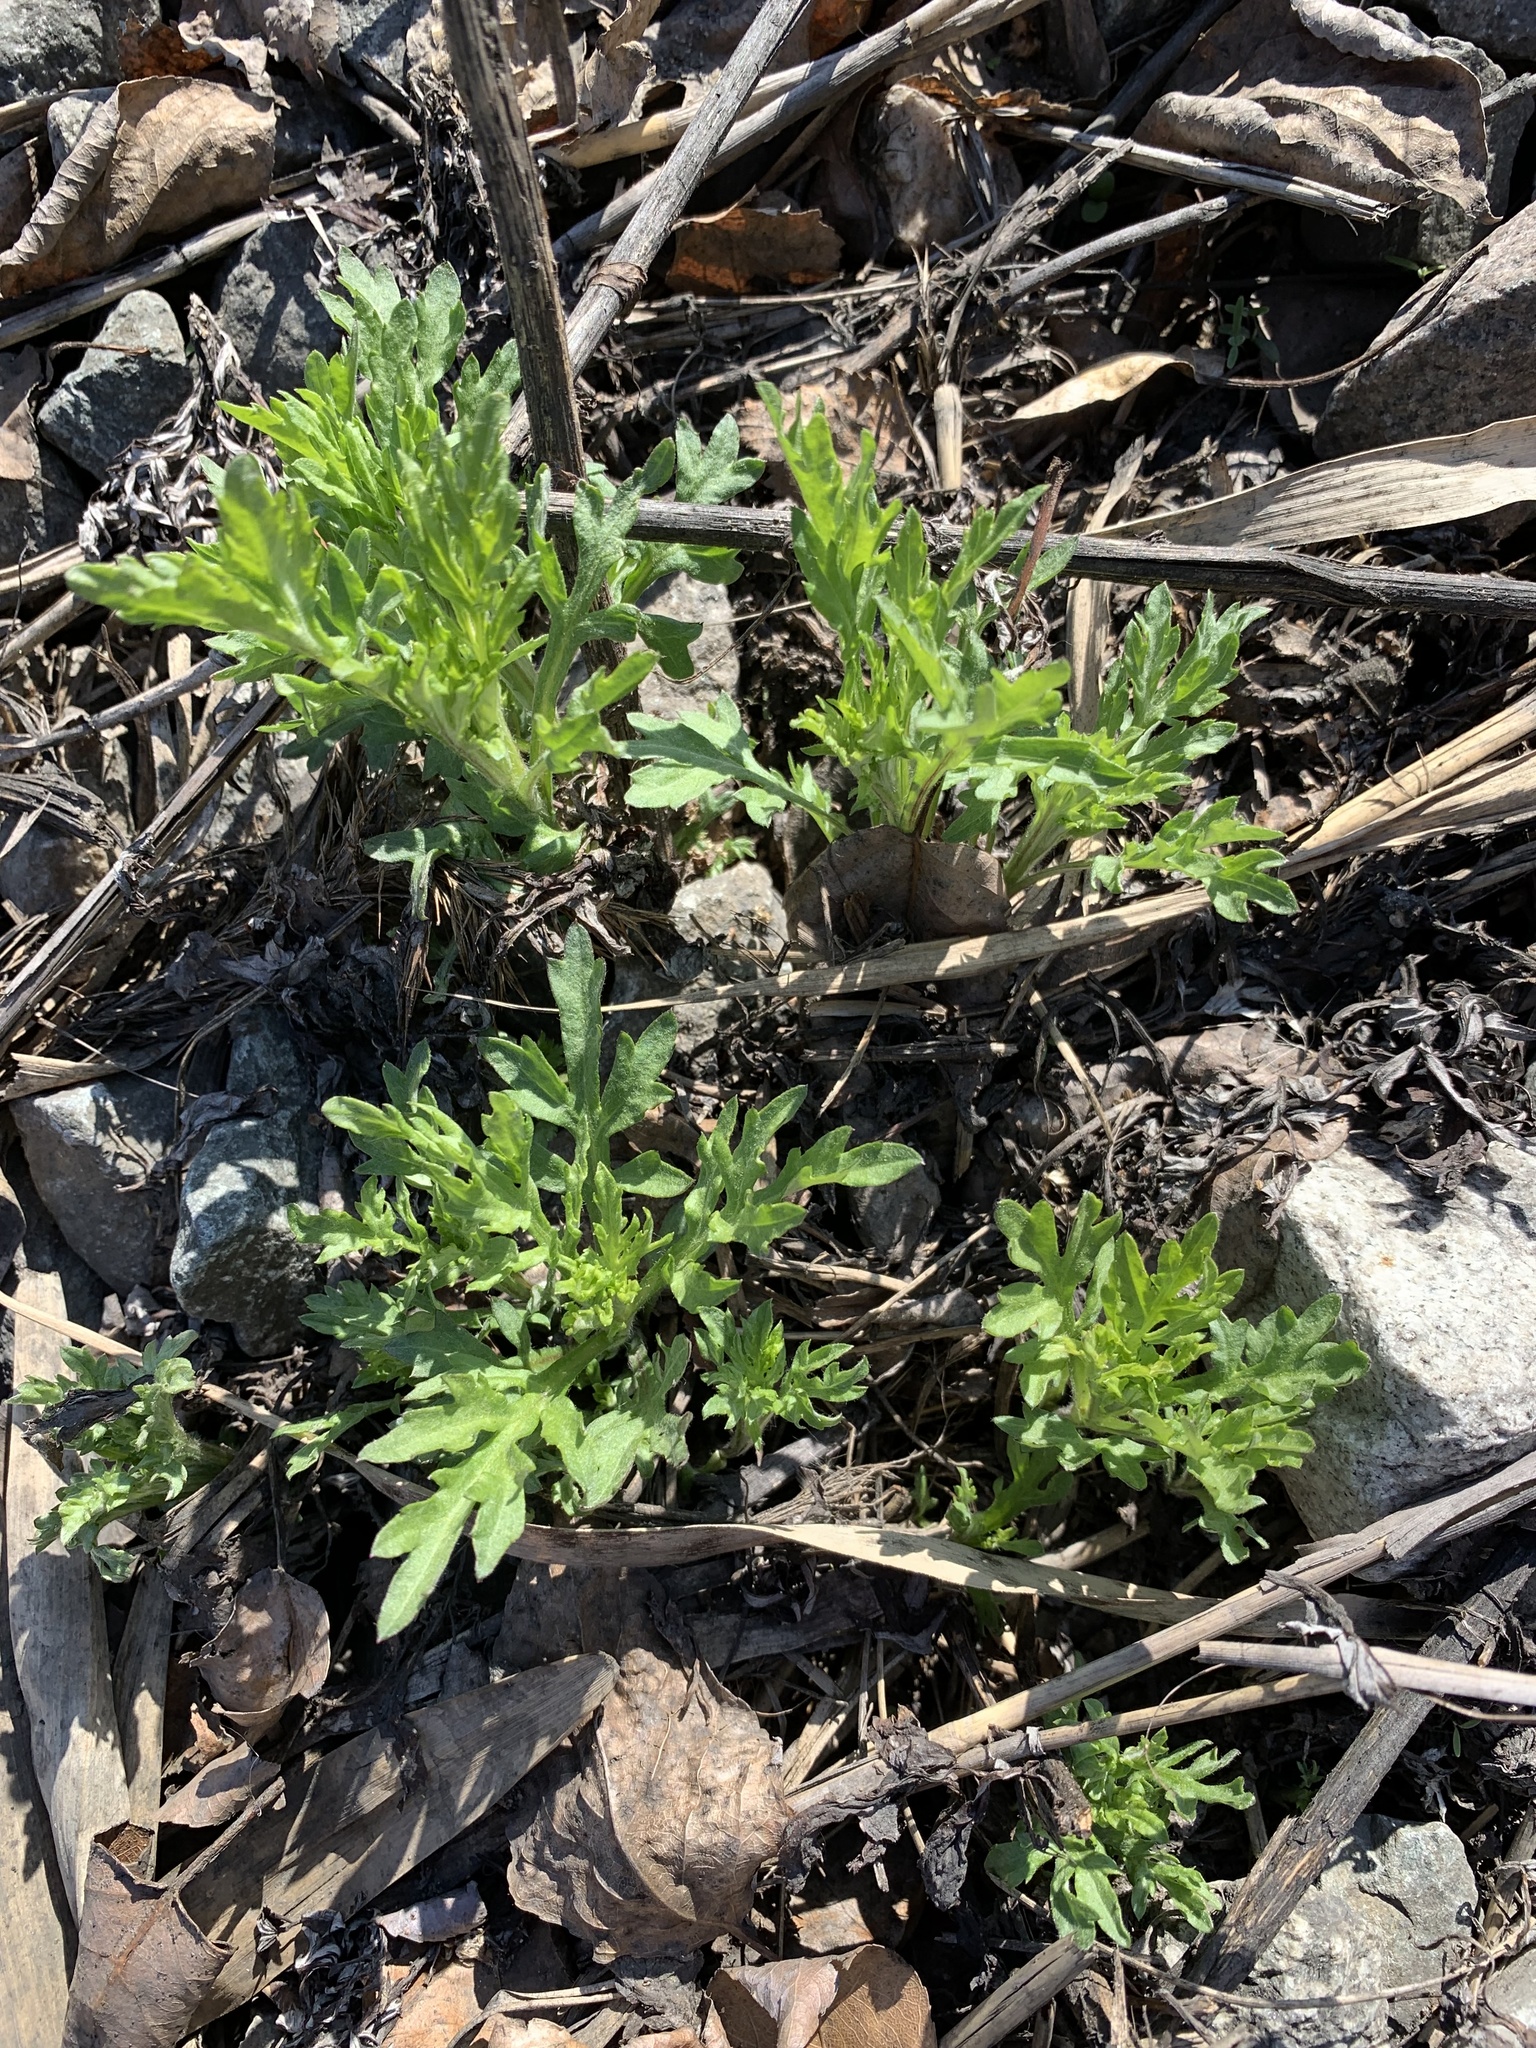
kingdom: Plantae
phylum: Tracheophyta
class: Magnoliopsida
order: Asterales
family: Asteraceae
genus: Artemisia
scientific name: Artemisia vulgaris
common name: Mugwort
